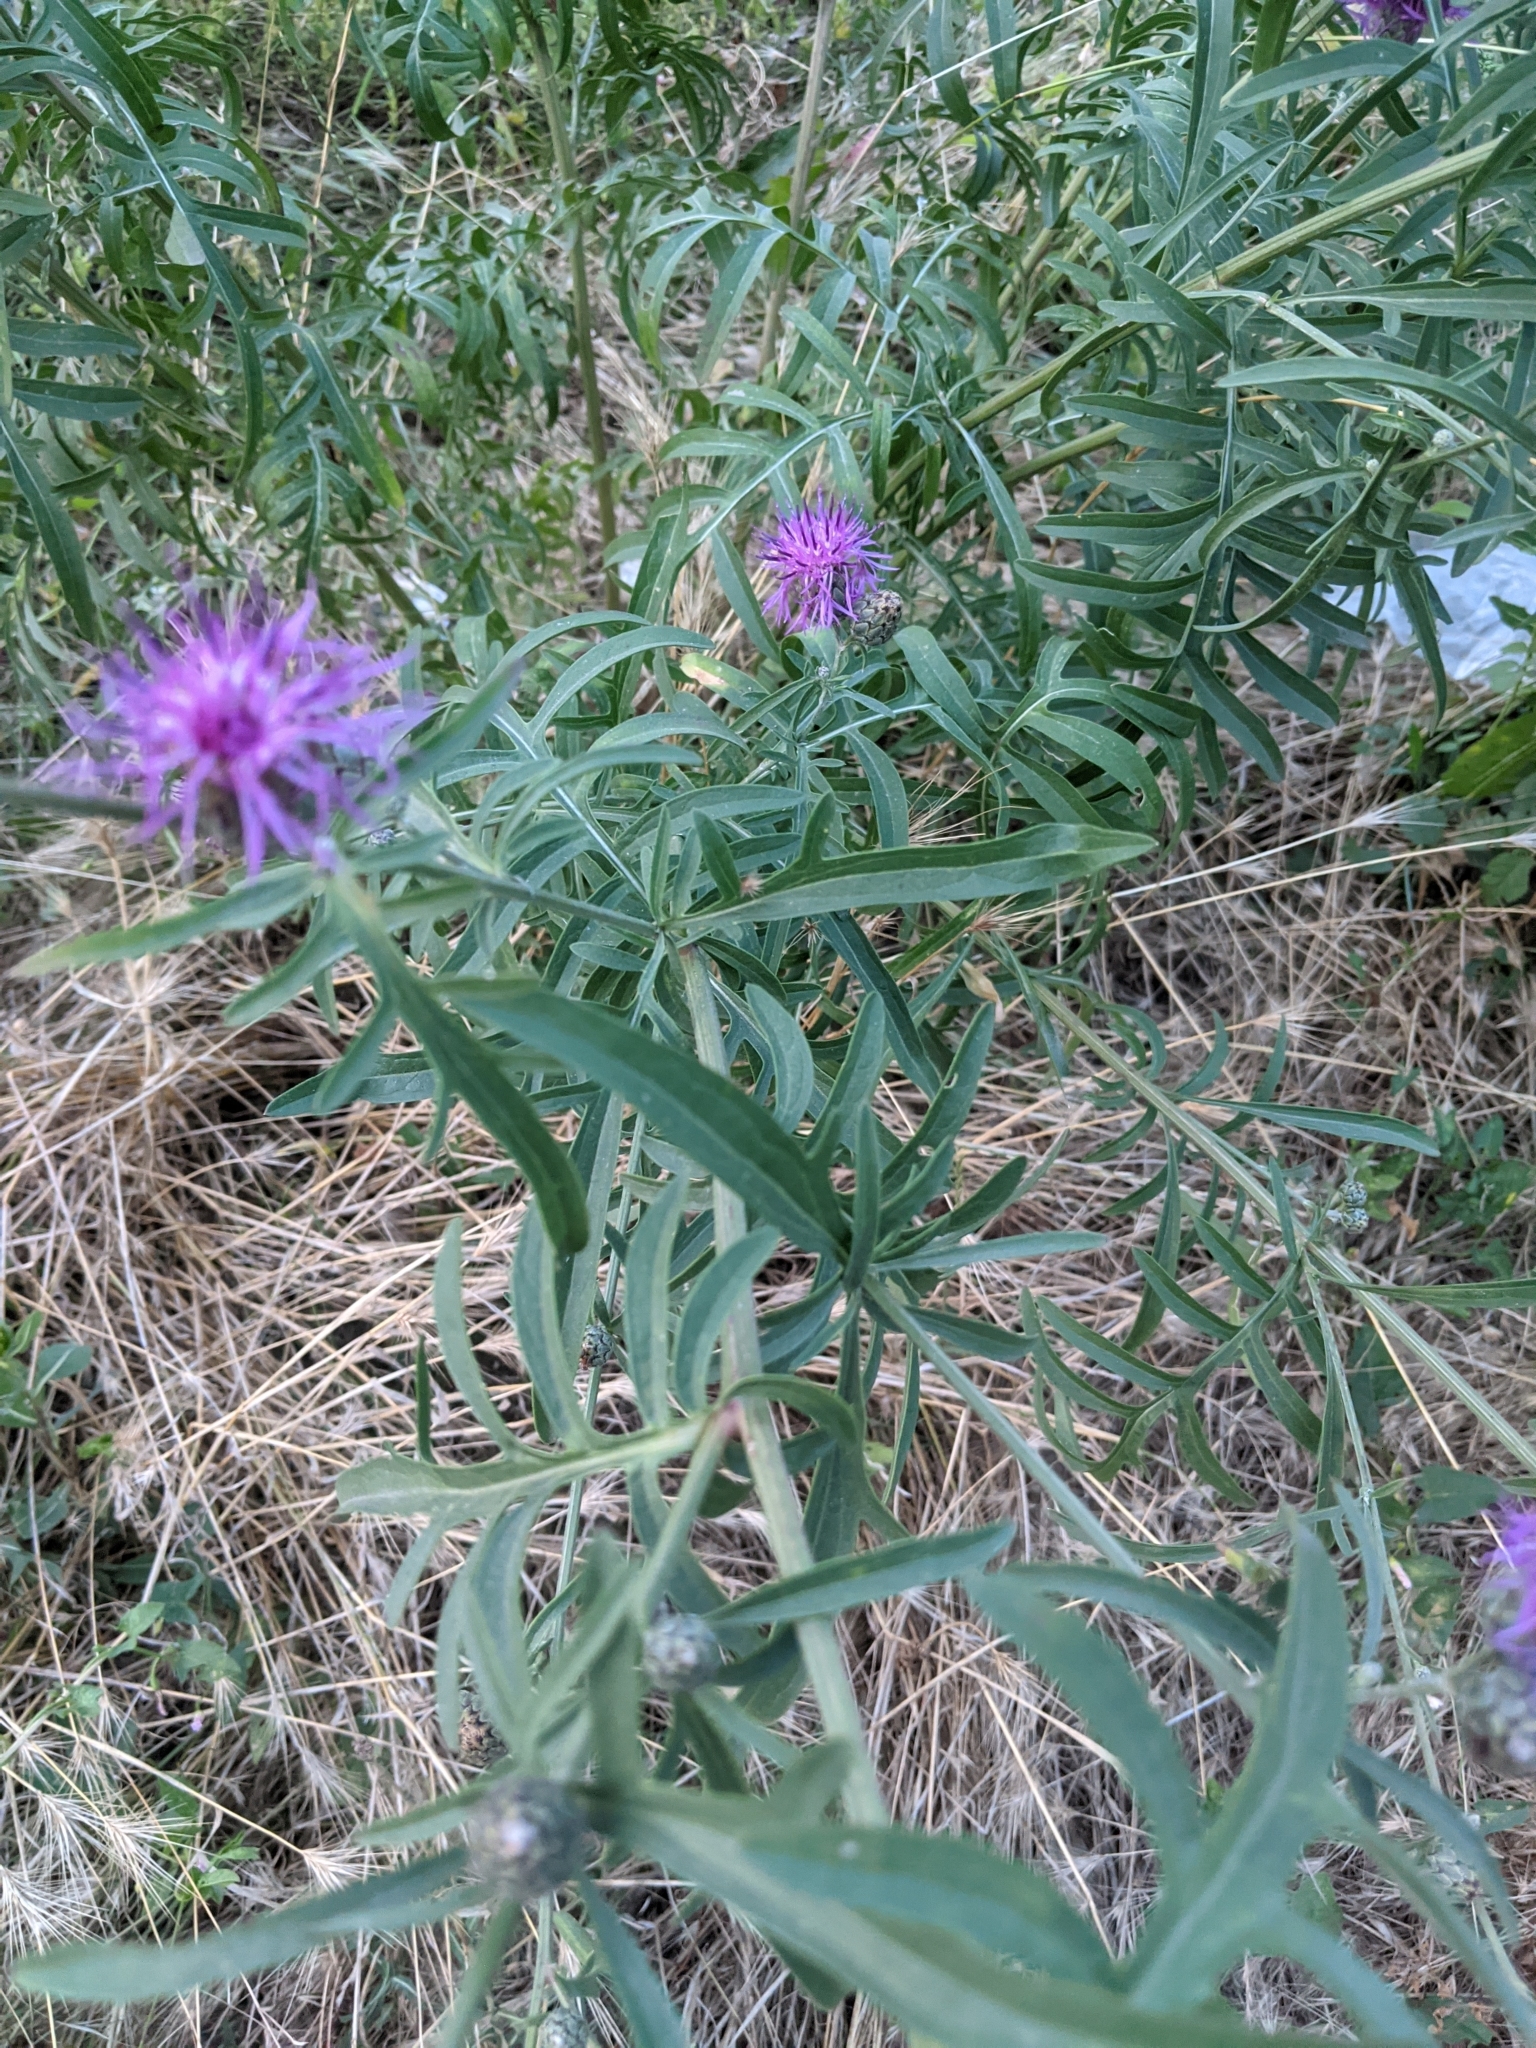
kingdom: Plantae
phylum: Tracheophyta
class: Magnoliopsida
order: Asterales
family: Asteraceae
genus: Centaurea
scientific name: Centaurea scabiosa
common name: Greater knapweed
